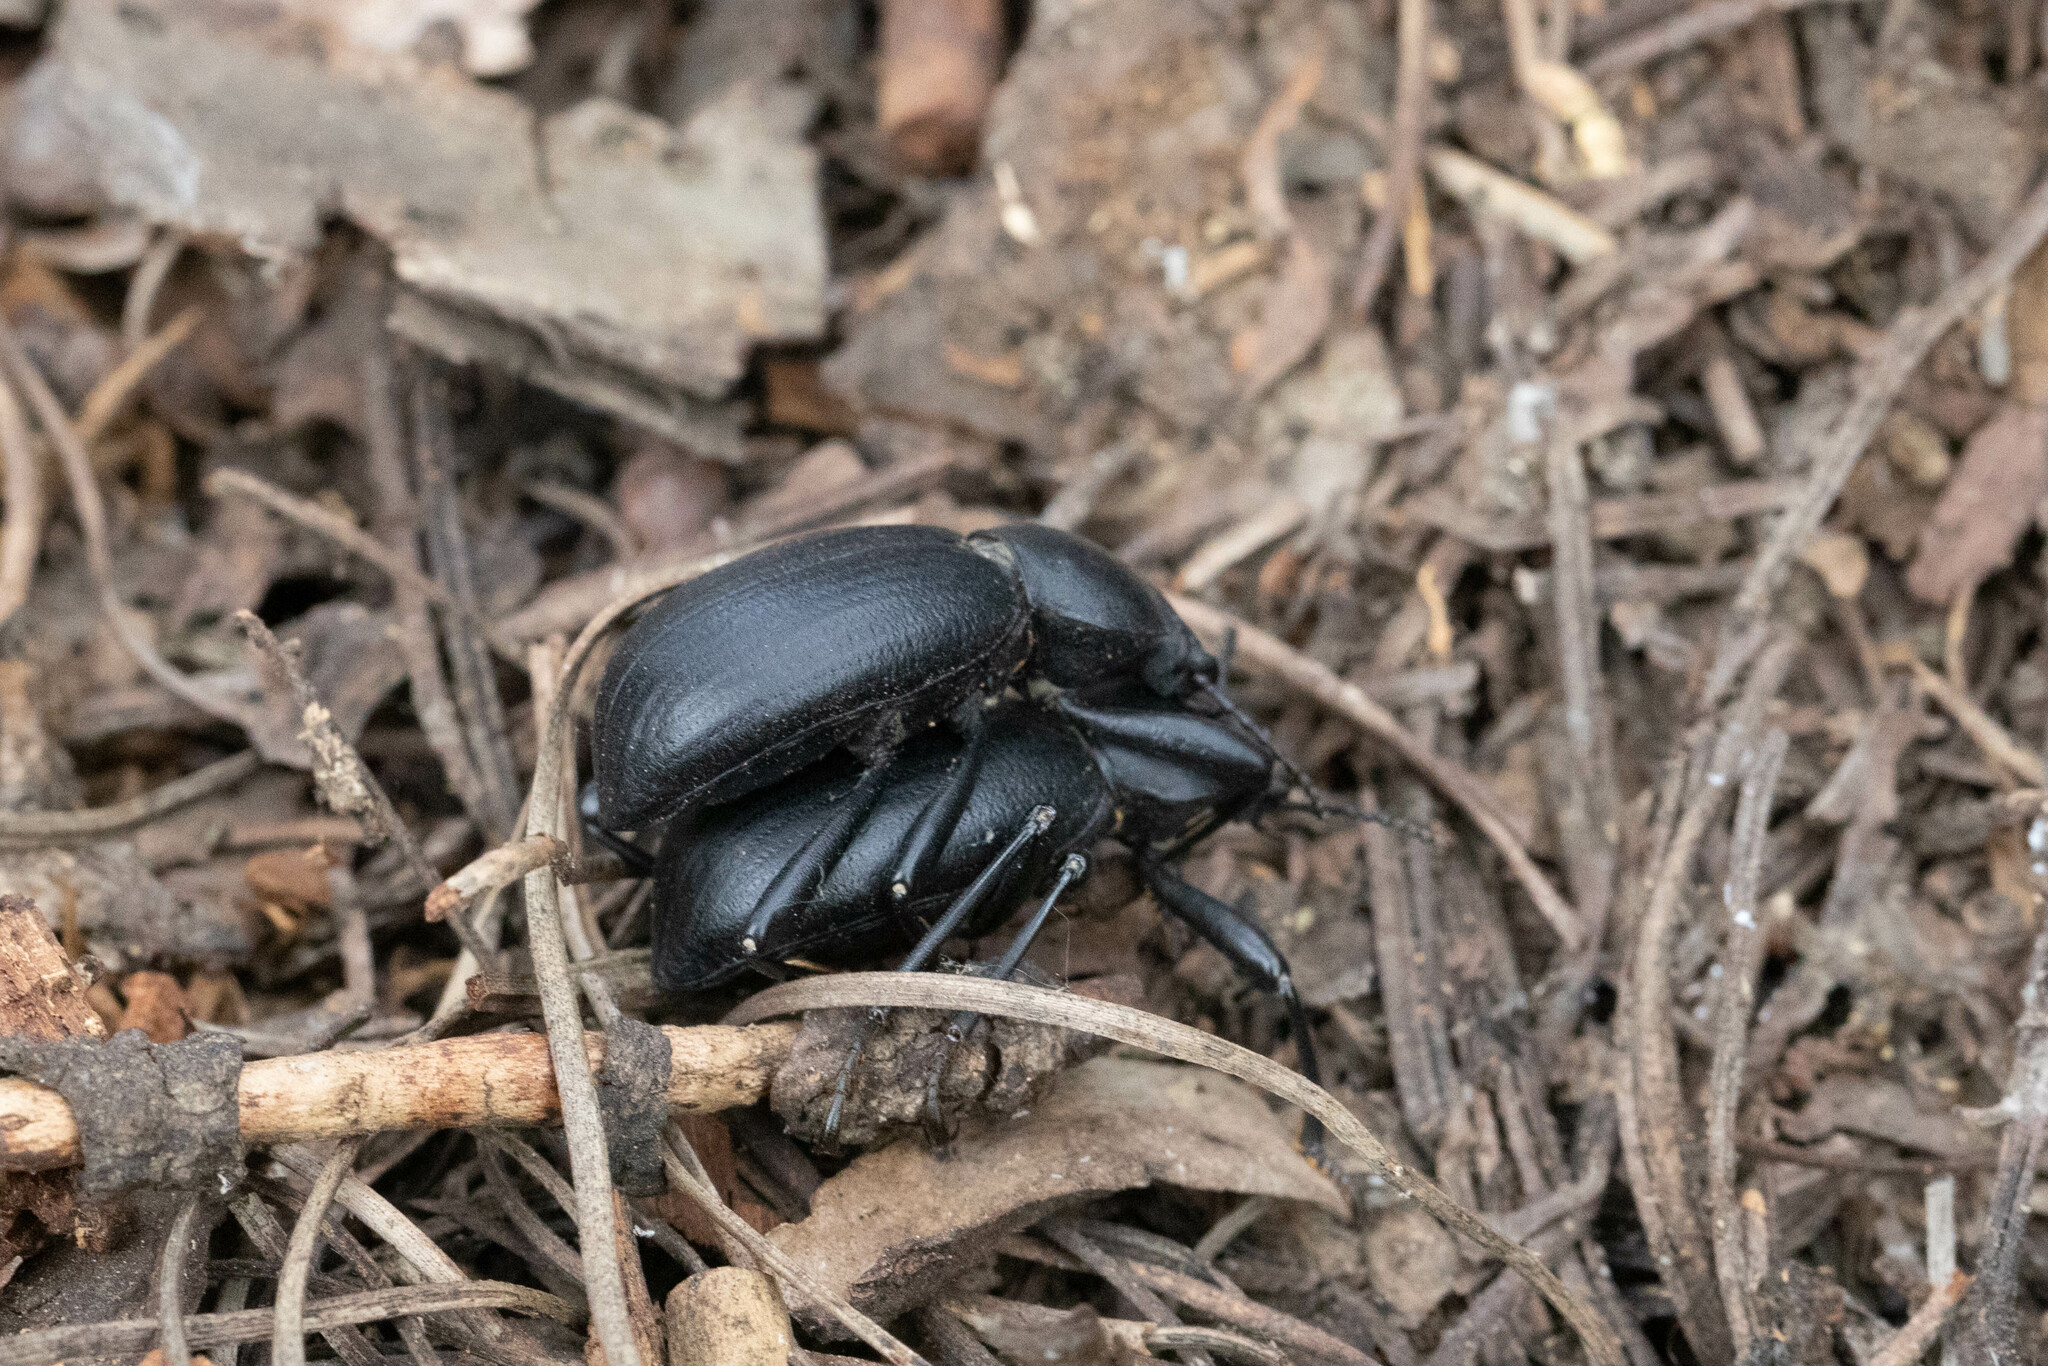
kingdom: Animalia
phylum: Arthropoda
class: Insecta
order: Coleoptera
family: Tenebrionidae
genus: Coelocnemis
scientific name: Coelocnemis dilaticollis
